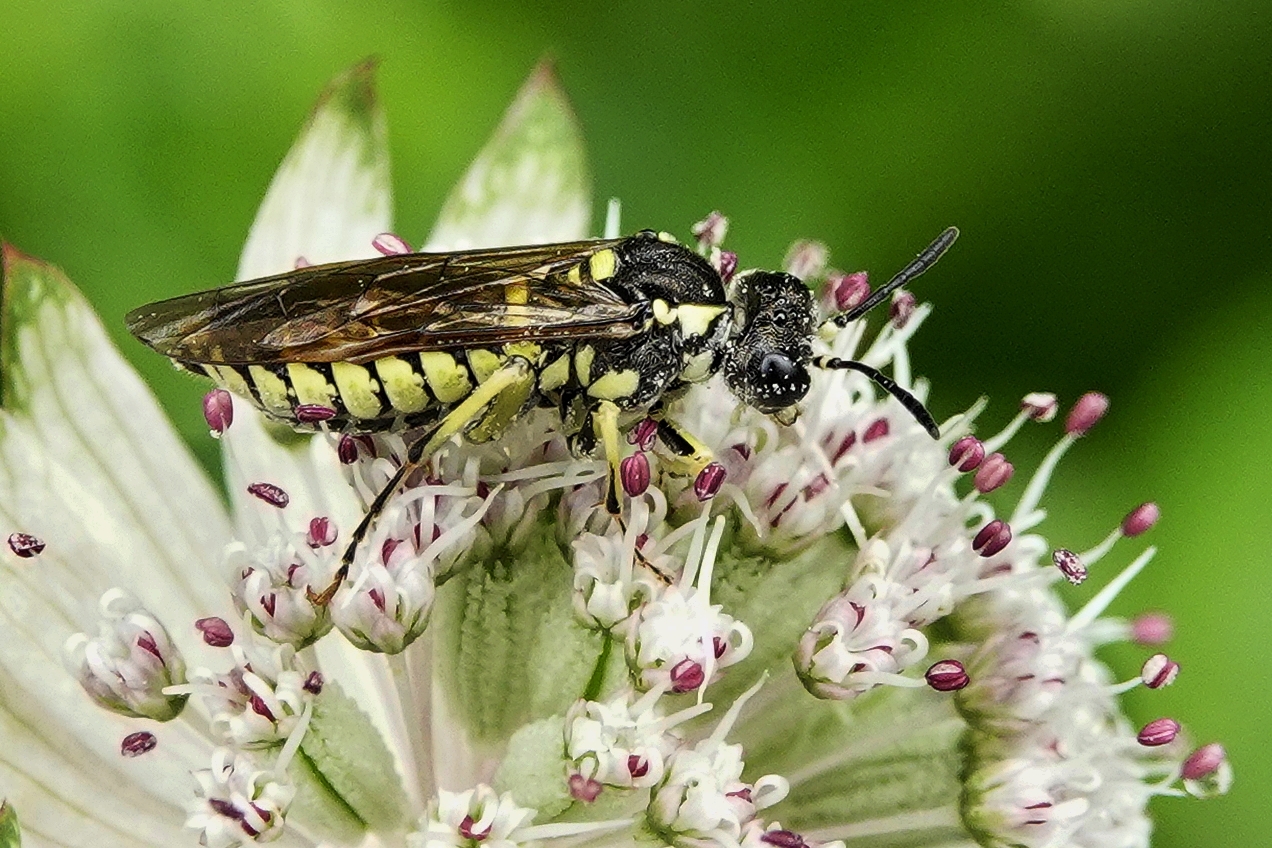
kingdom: Animalia
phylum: Arthropoda
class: Insecta
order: Hymenoptera
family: Tenthredinidae
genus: Tenthredo
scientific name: Tenthredo notha
